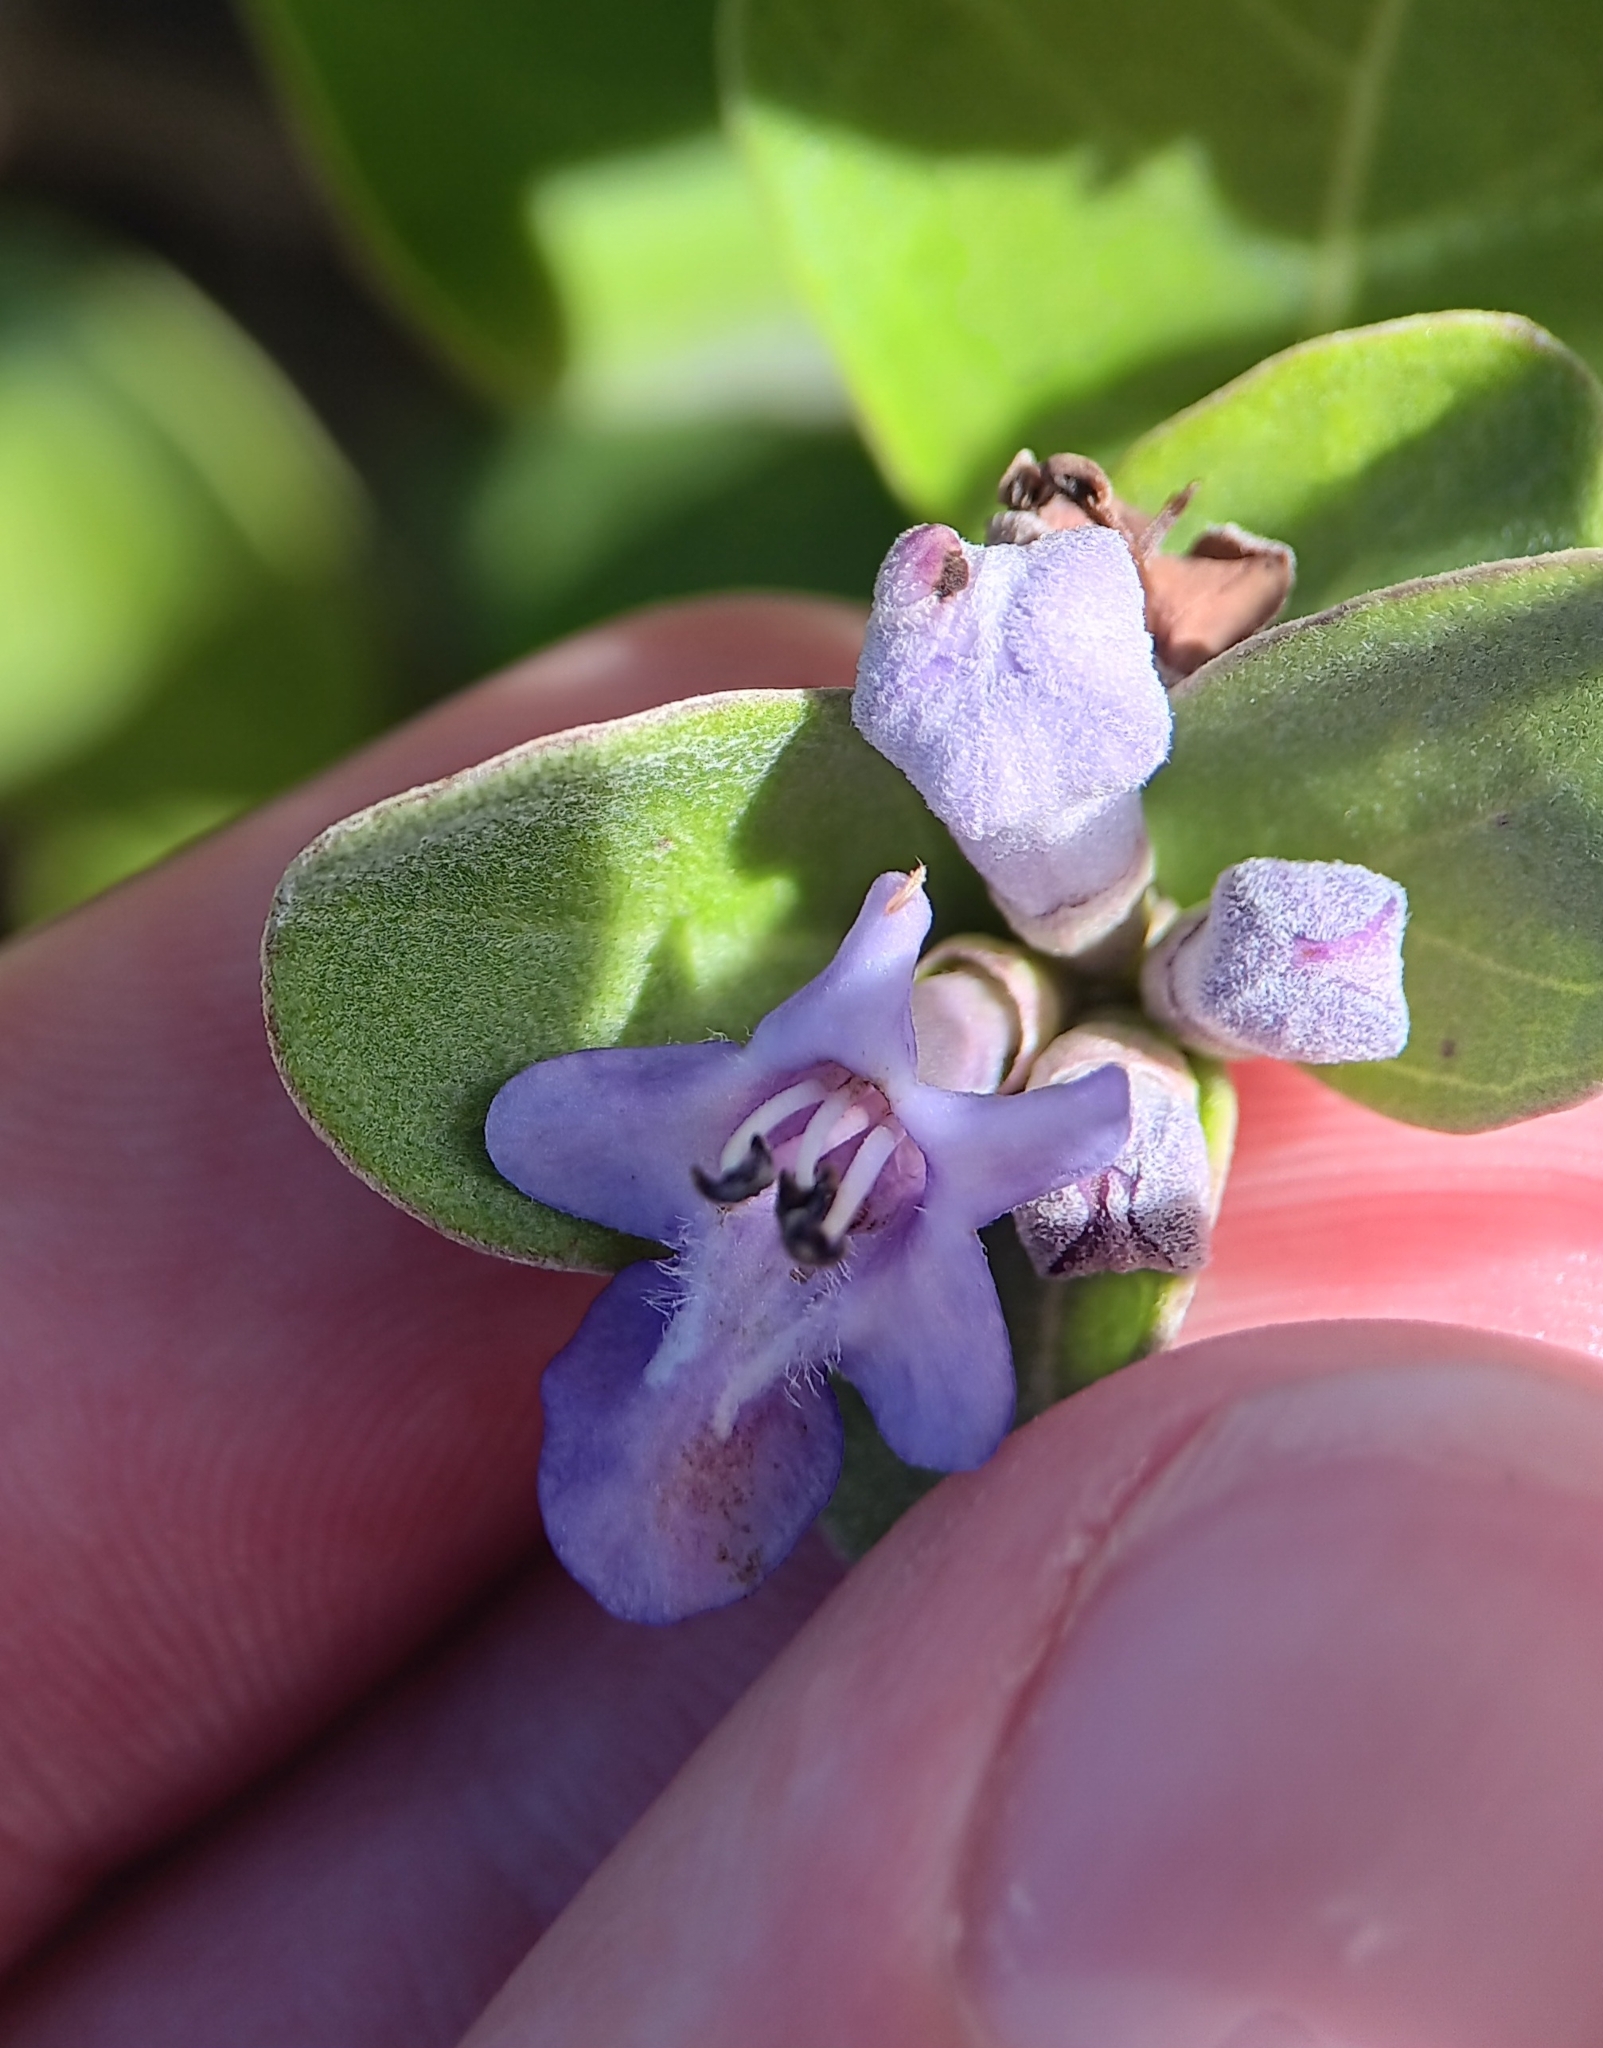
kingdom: Plantae
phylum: Tracheophyta
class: Magnoliopsida
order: Lamiales
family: Lamiaceae
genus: Vitex
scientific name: Vitex rotundifolia
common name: Beach vitex
